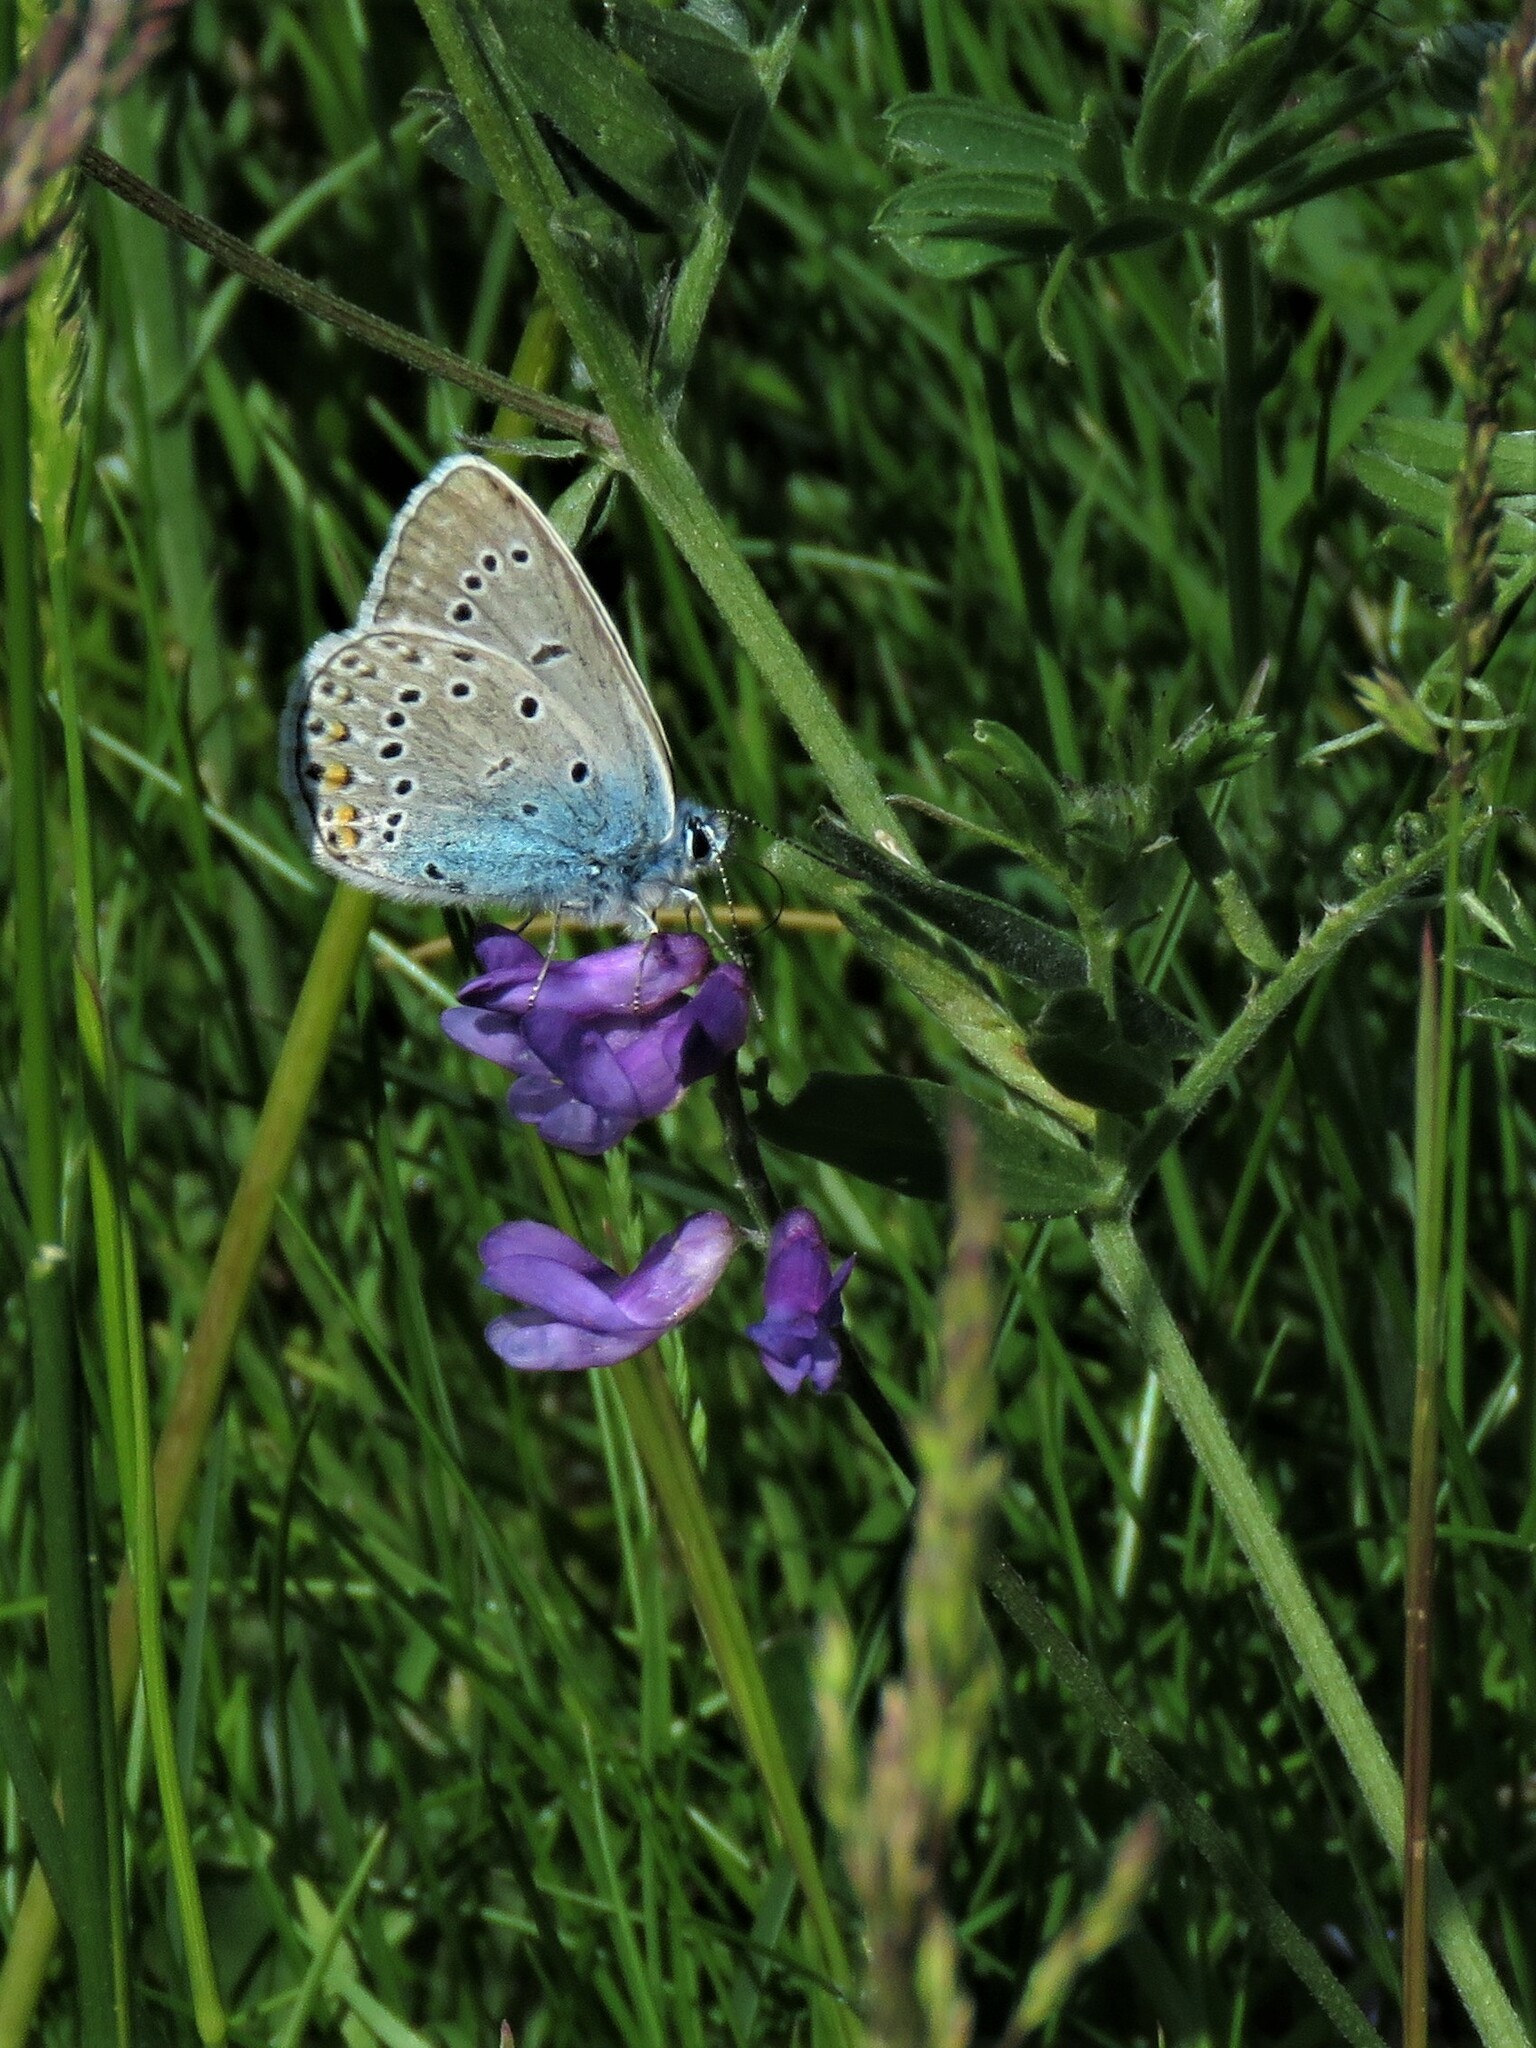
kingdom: Animalia
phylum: Arthropoda
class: Insecta
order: Lepidoptera
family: Lycaenidae
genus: Plebejus
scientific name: Plebejus amanda
